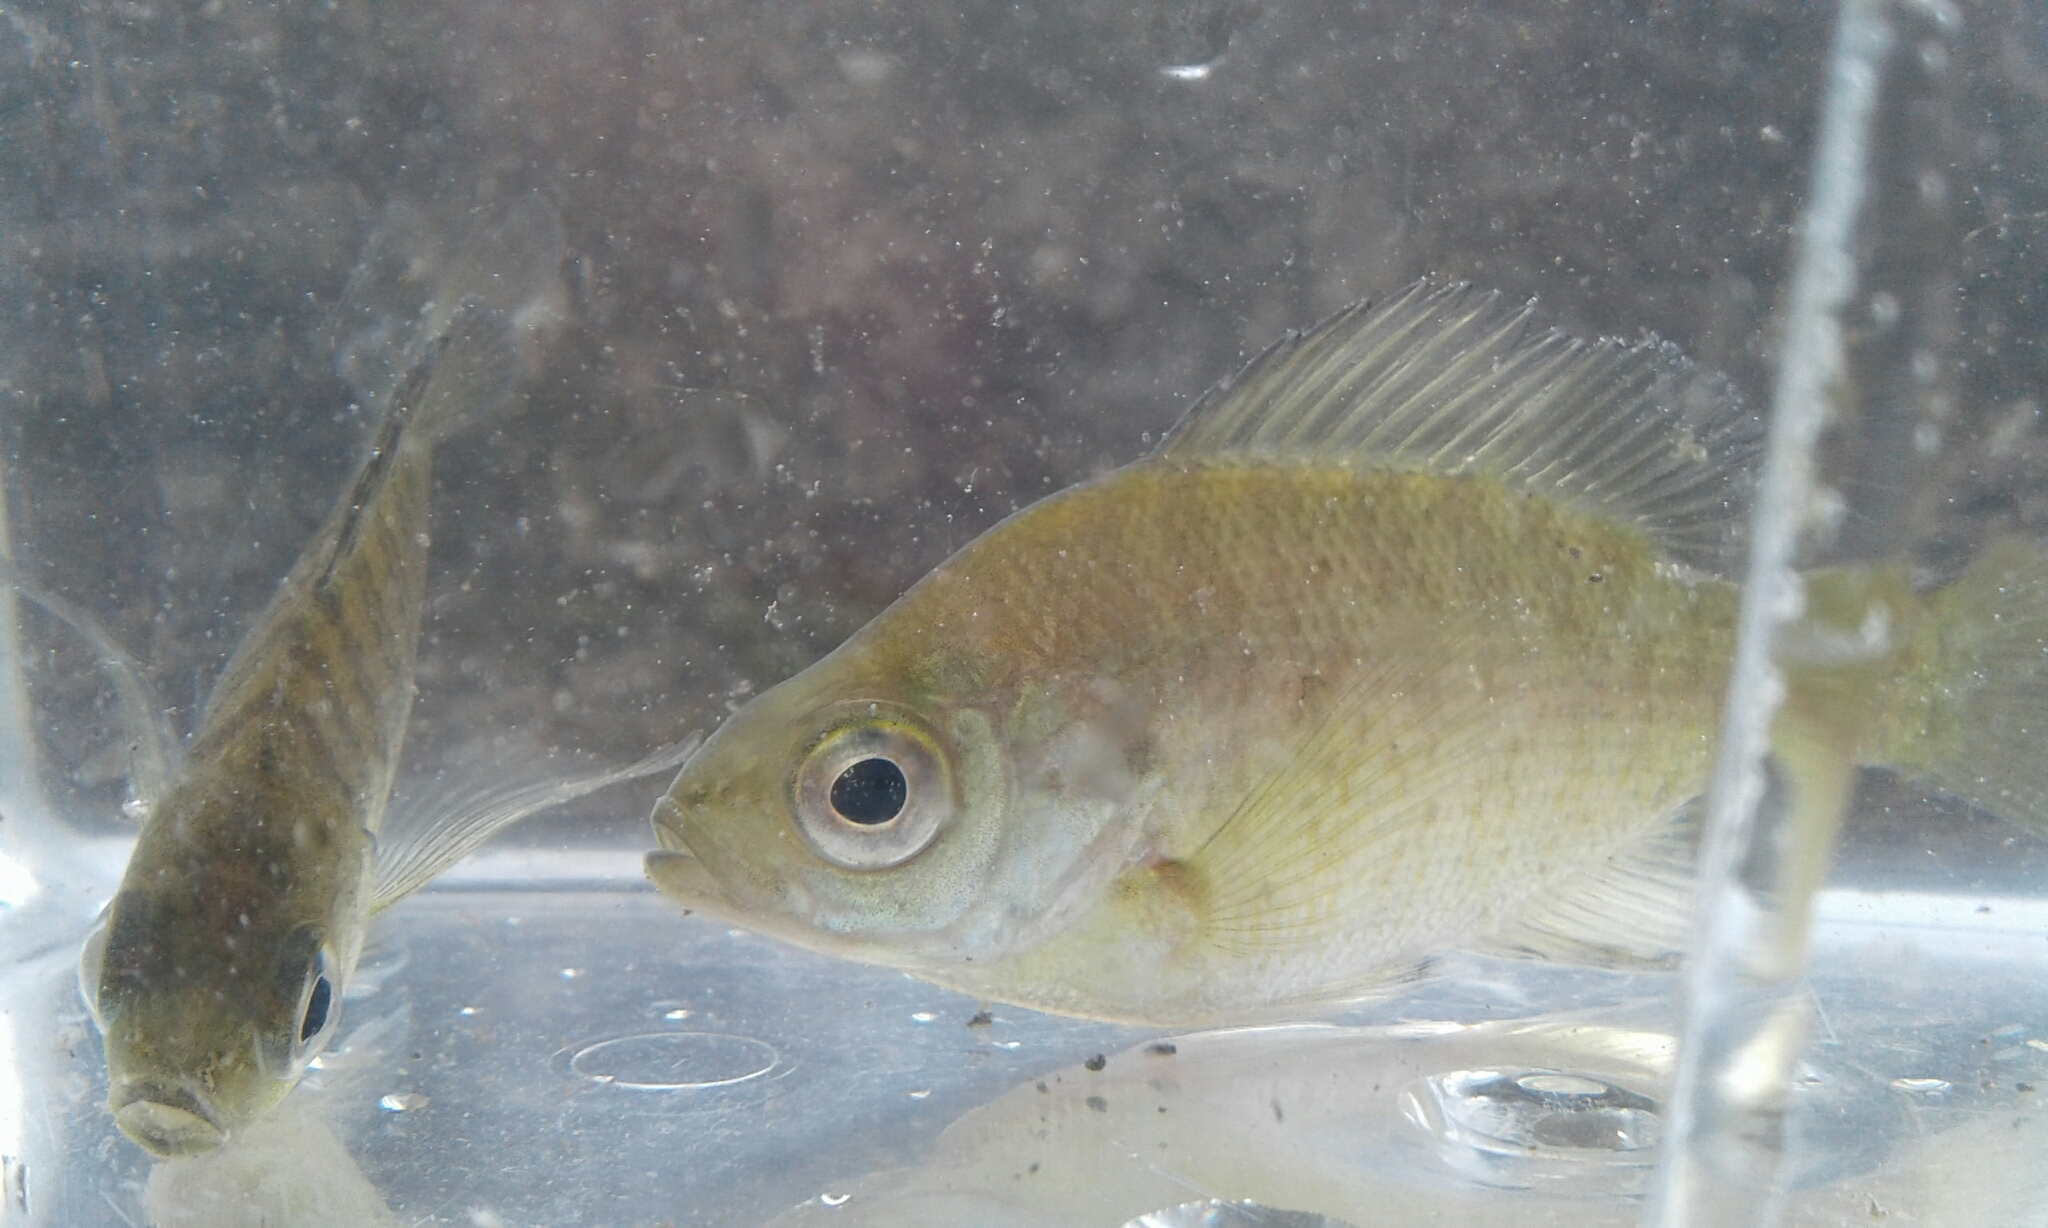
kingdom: Animalia
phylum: Chordata
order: Perciformes
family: Centrarchidae
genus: Lepomis
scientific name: Lepomis macrochirus
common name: Bluegill
